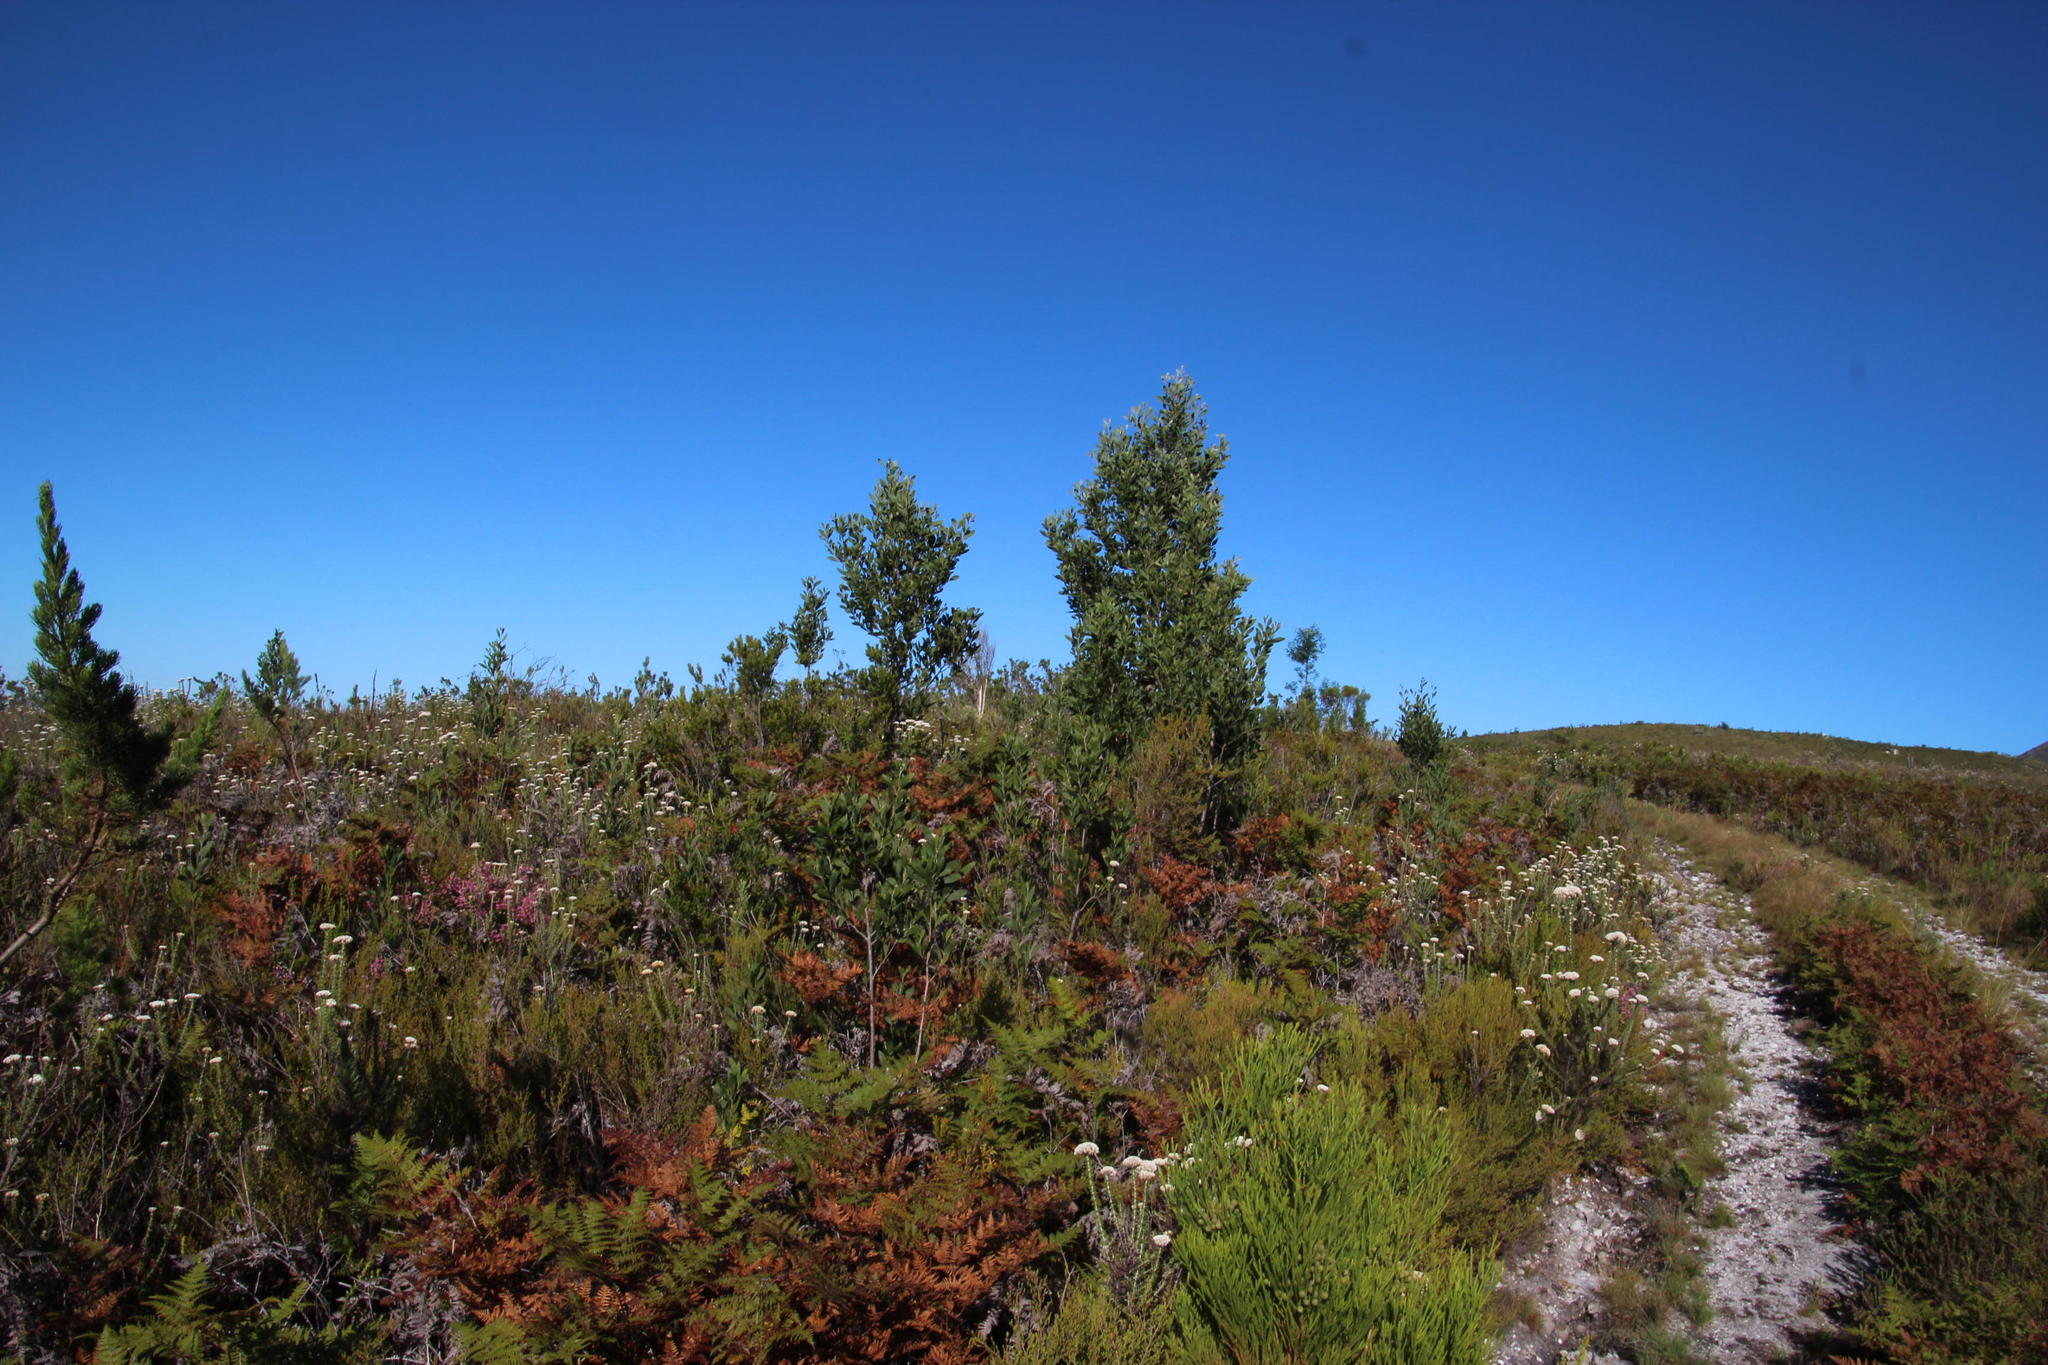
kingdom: Plantae
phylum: Tracheophyta
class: Magnoliopsida
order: Fabales
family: Fabaceae
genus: Acacia
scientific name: Acacia melanoxylon
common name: Blackwood
